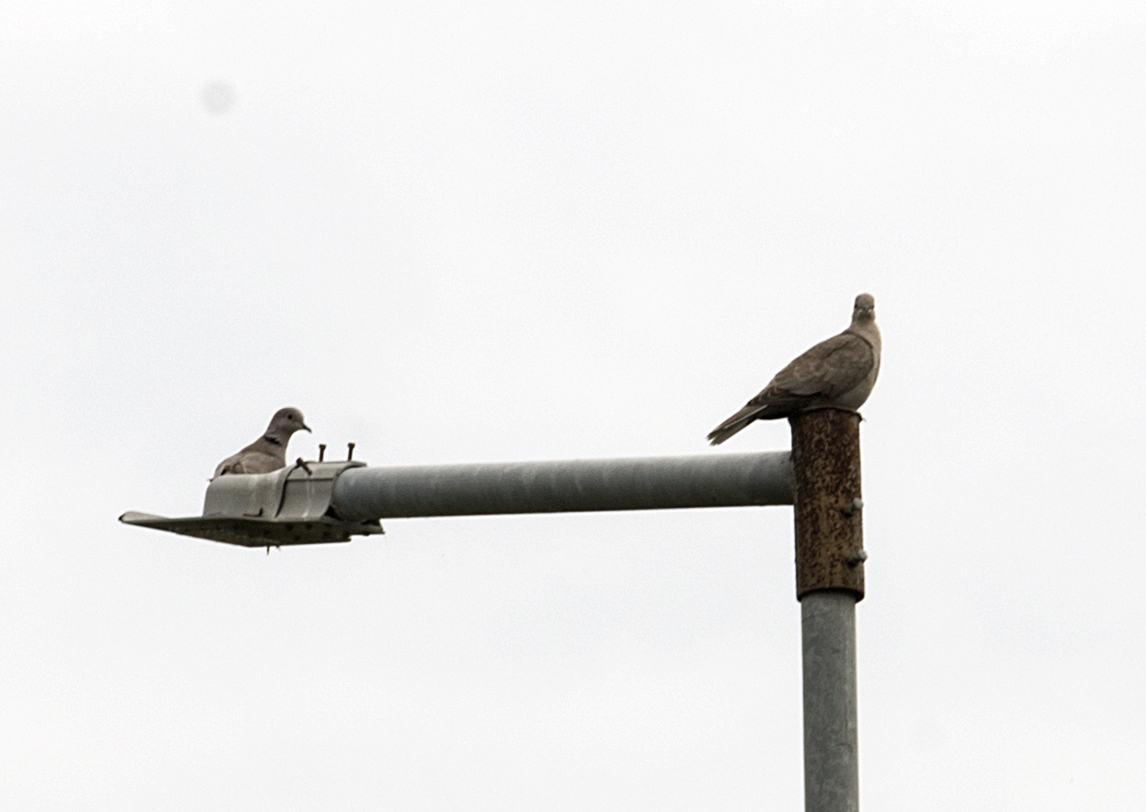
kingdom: Animalia
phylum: Chordata
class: Aves
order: Columbiformes
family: Columbidae
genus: Streptopelia
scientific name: Streptopelia decaocto
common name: Eurasian collared dove
